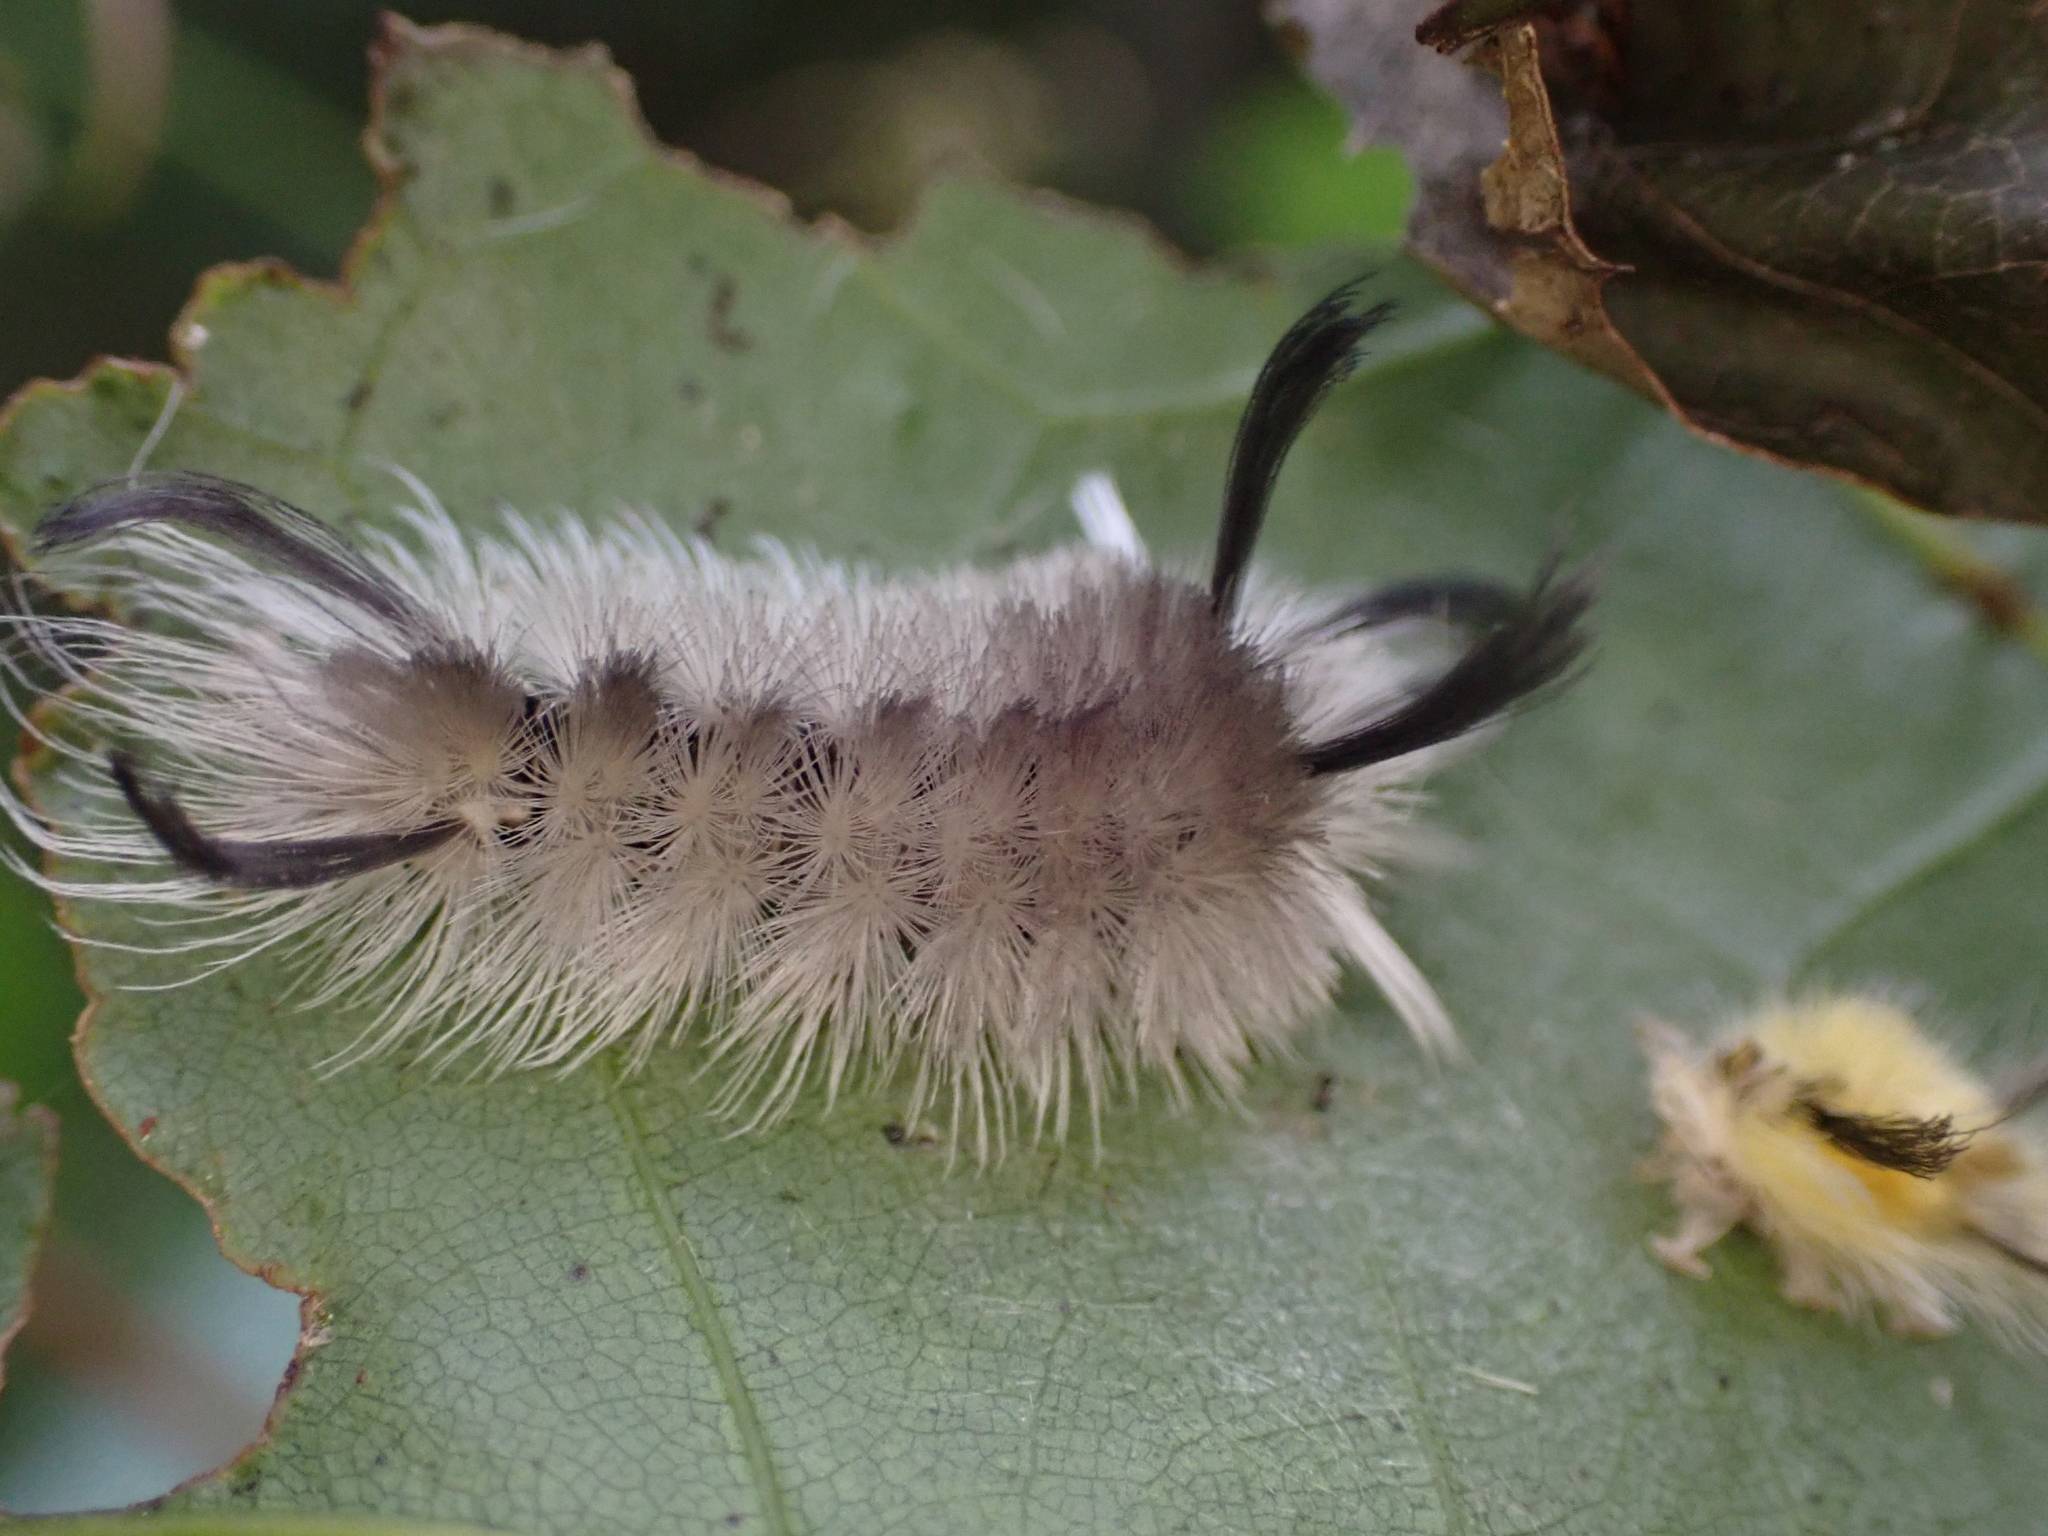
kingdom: Animalia
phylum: Arthropoda
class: Insecta
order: Lepidoptera
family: Erebidae
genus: Halysidota
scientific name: Halysidota tessellaris
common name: Banded tussock moth
